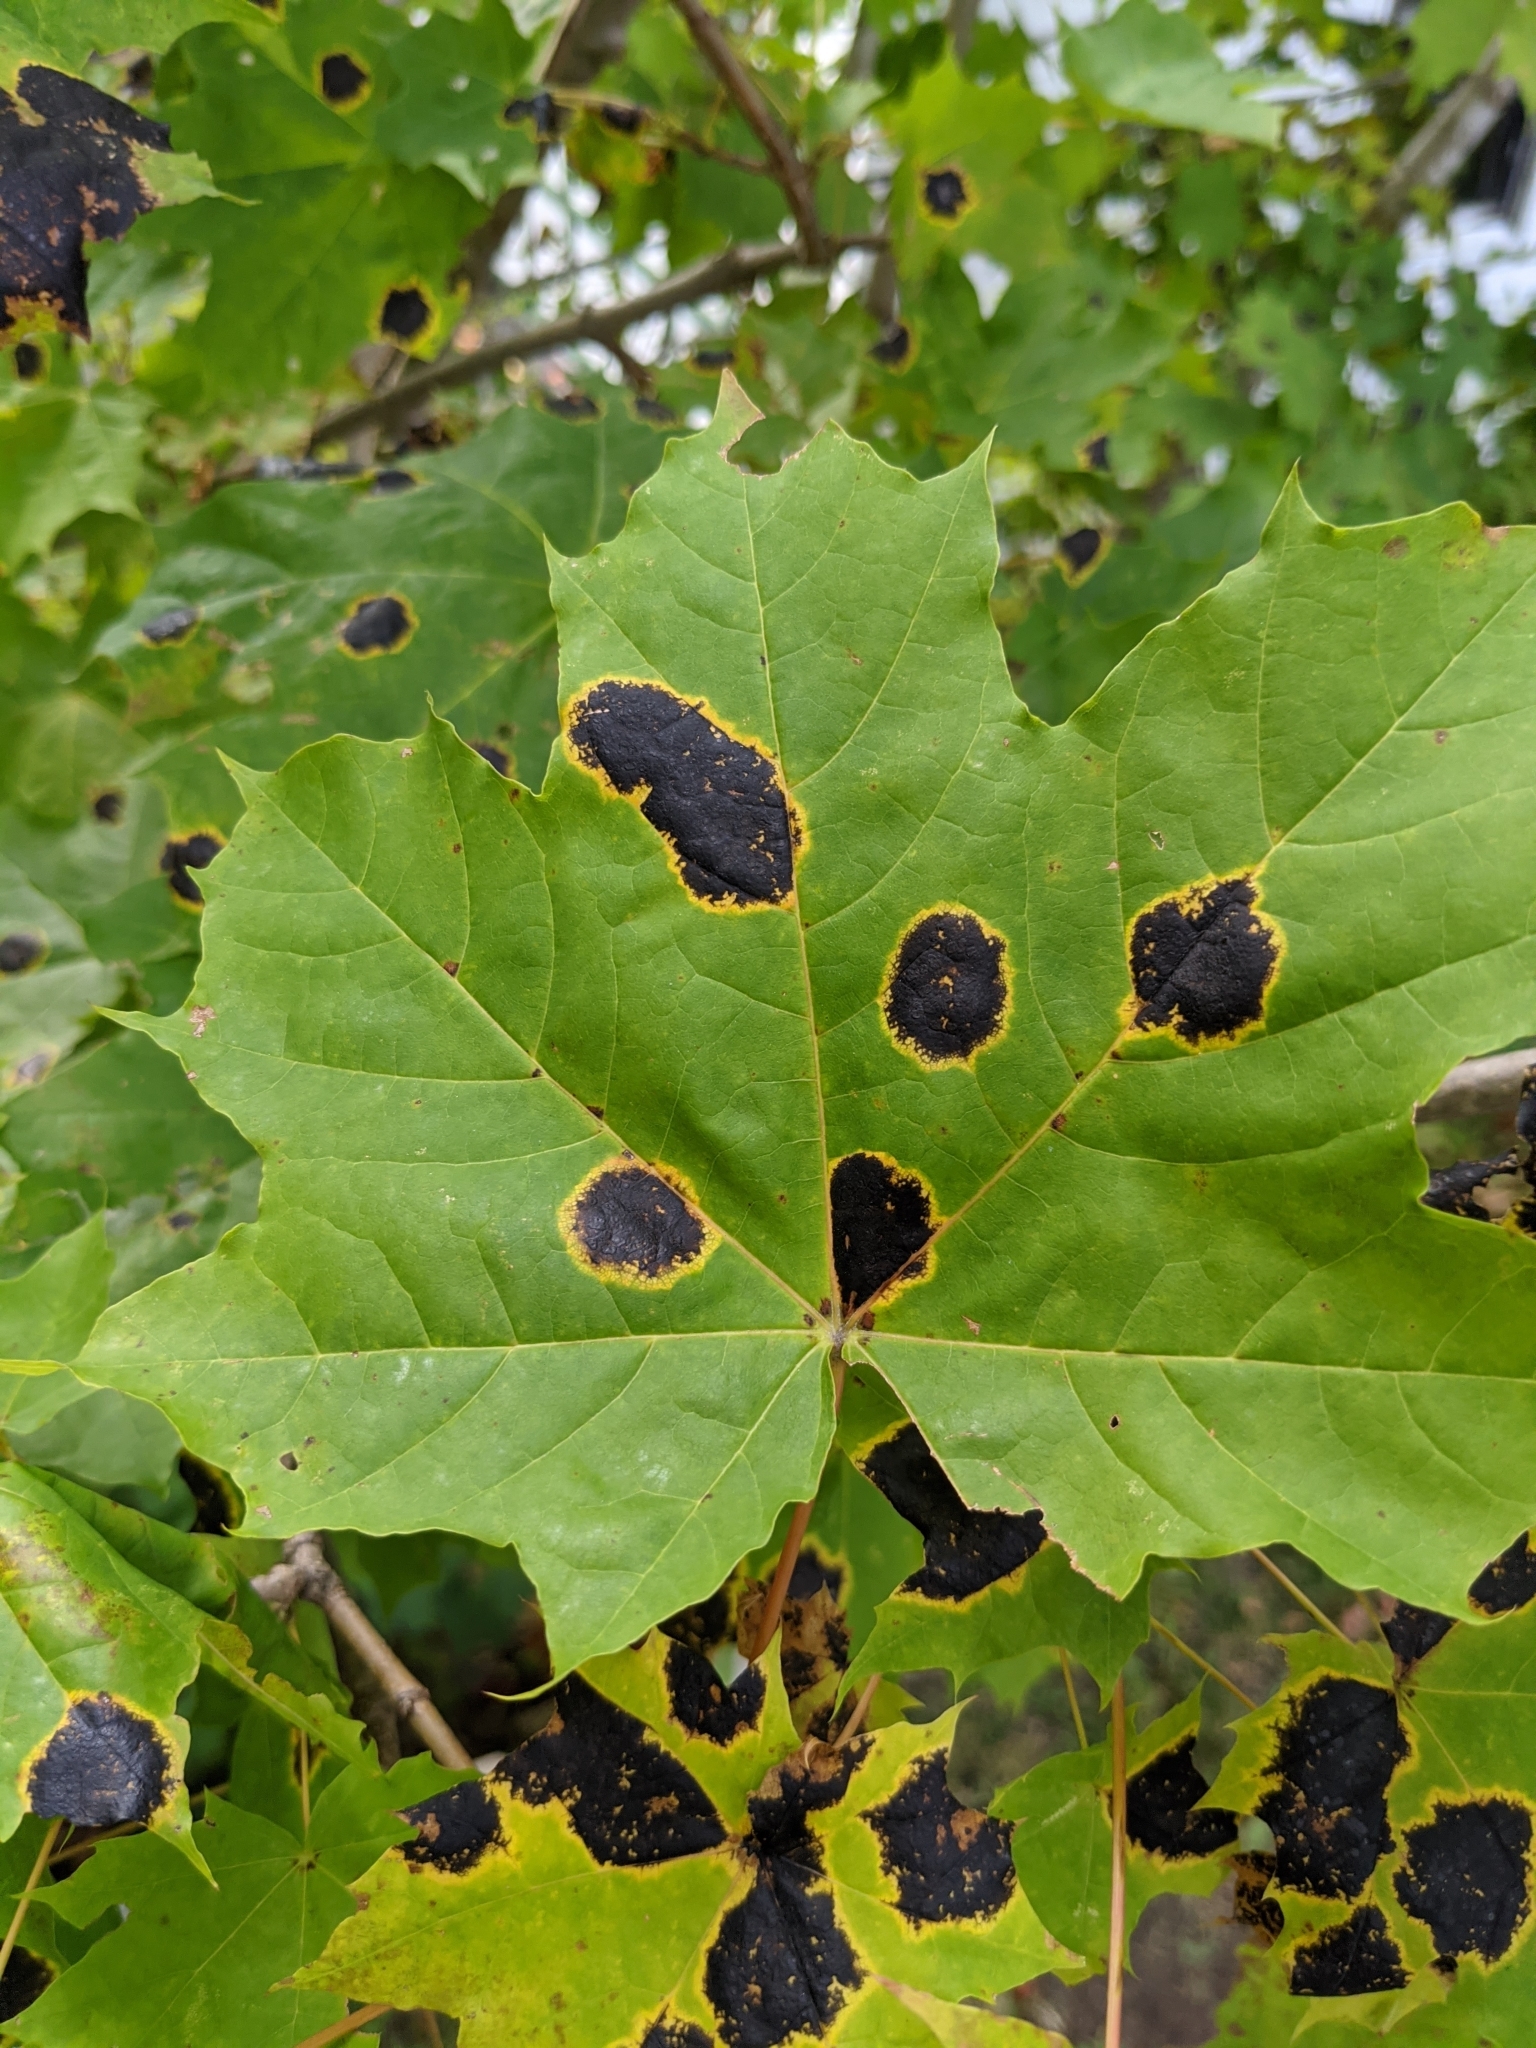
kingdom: Fungi
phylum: Ascomycota
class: Leotiomycetes
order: Rhytismatales
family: Rhytismataceae
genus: Rhytisma
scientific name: Rhytisma acerinum
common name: European tar spot
